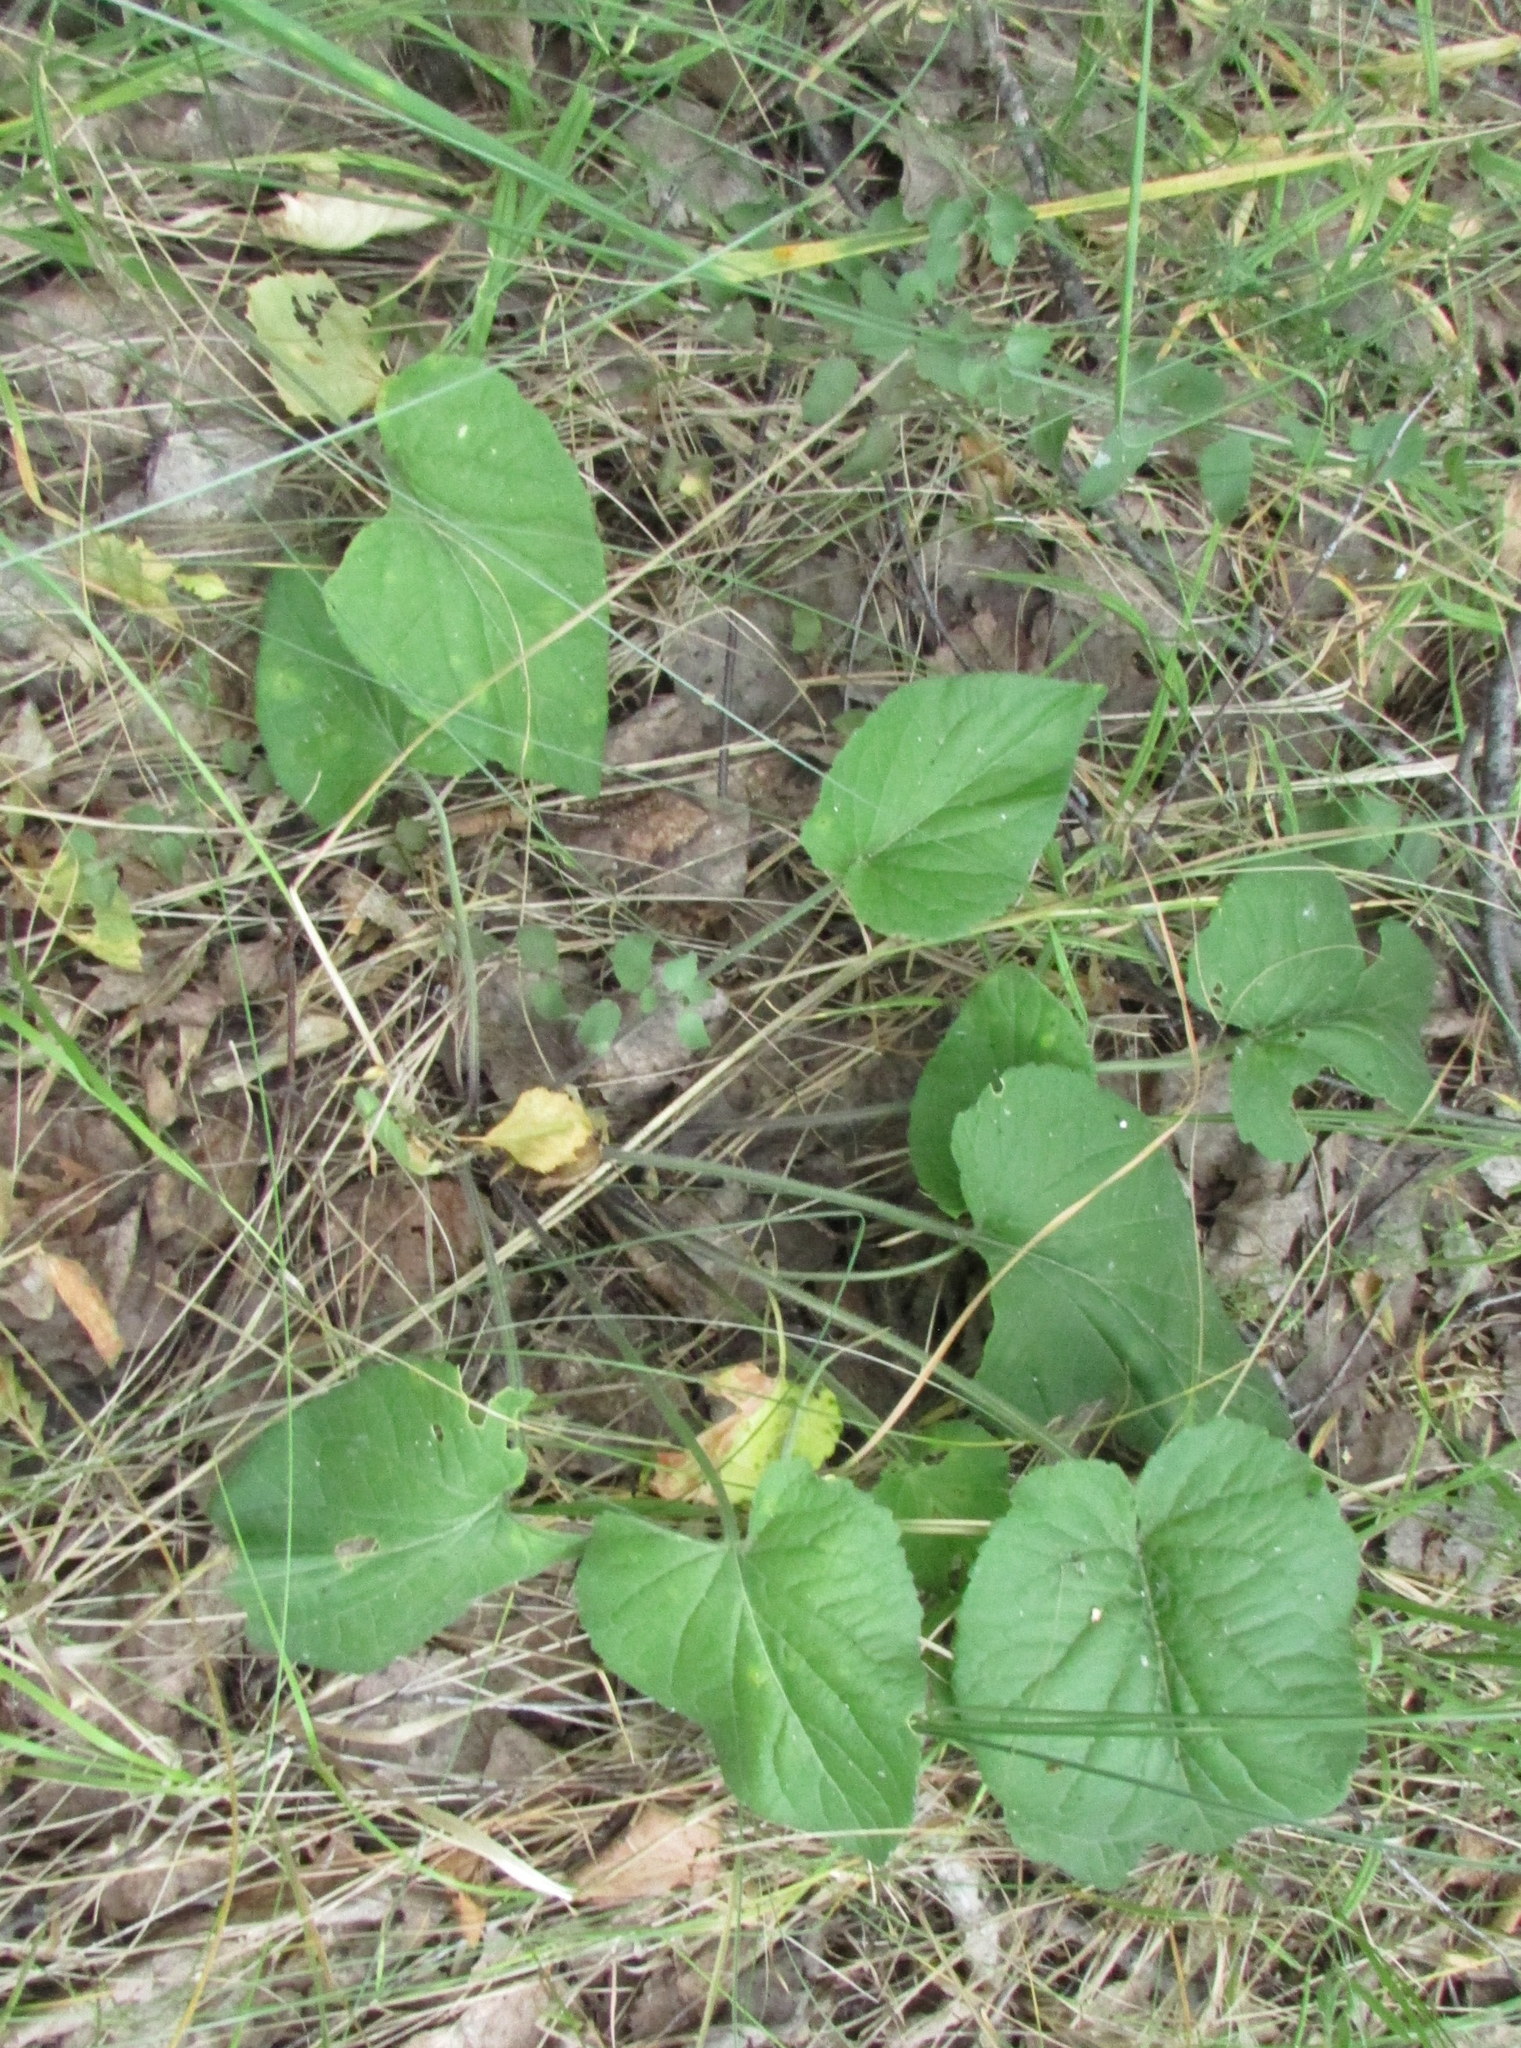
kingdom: Plantae
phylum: Tracheophyta
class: Magnoliopsida
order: Malpighiales
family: Violaceae
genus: Viola
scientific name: Viola hirta
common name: Hairy violet
